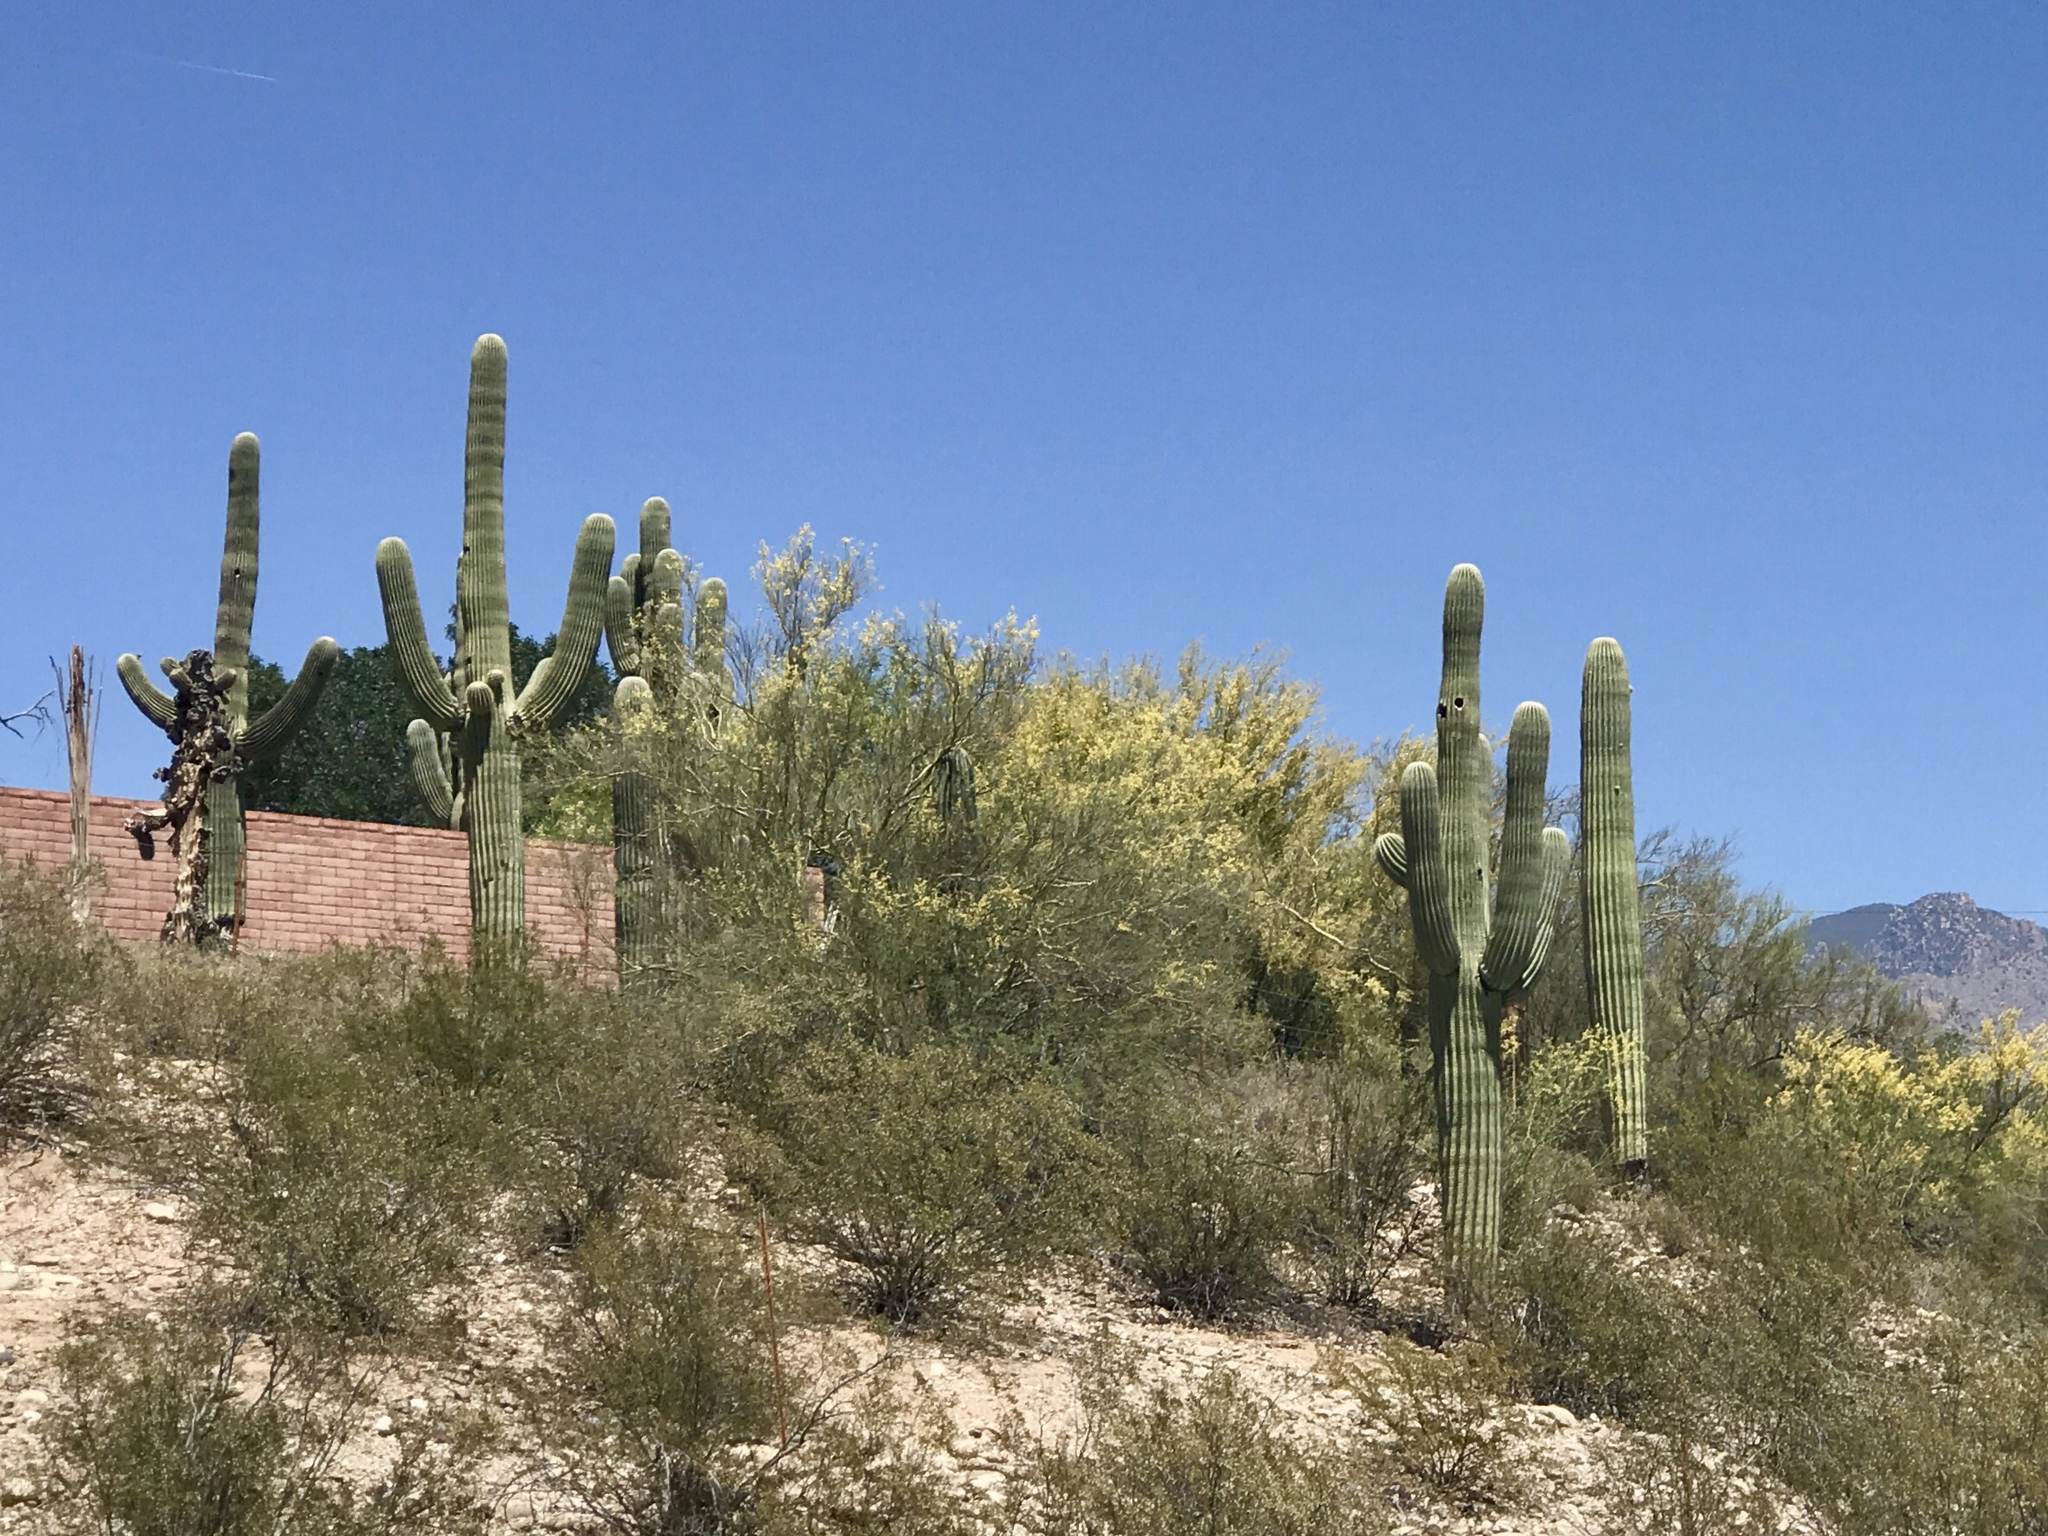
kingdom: Plantae
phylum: Tracheophyta
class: Magnoliopsida
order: Caryophyllales
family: Cactaceae
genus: Carnegiea
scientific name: Carnegiea gigantea
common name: Saguaro
